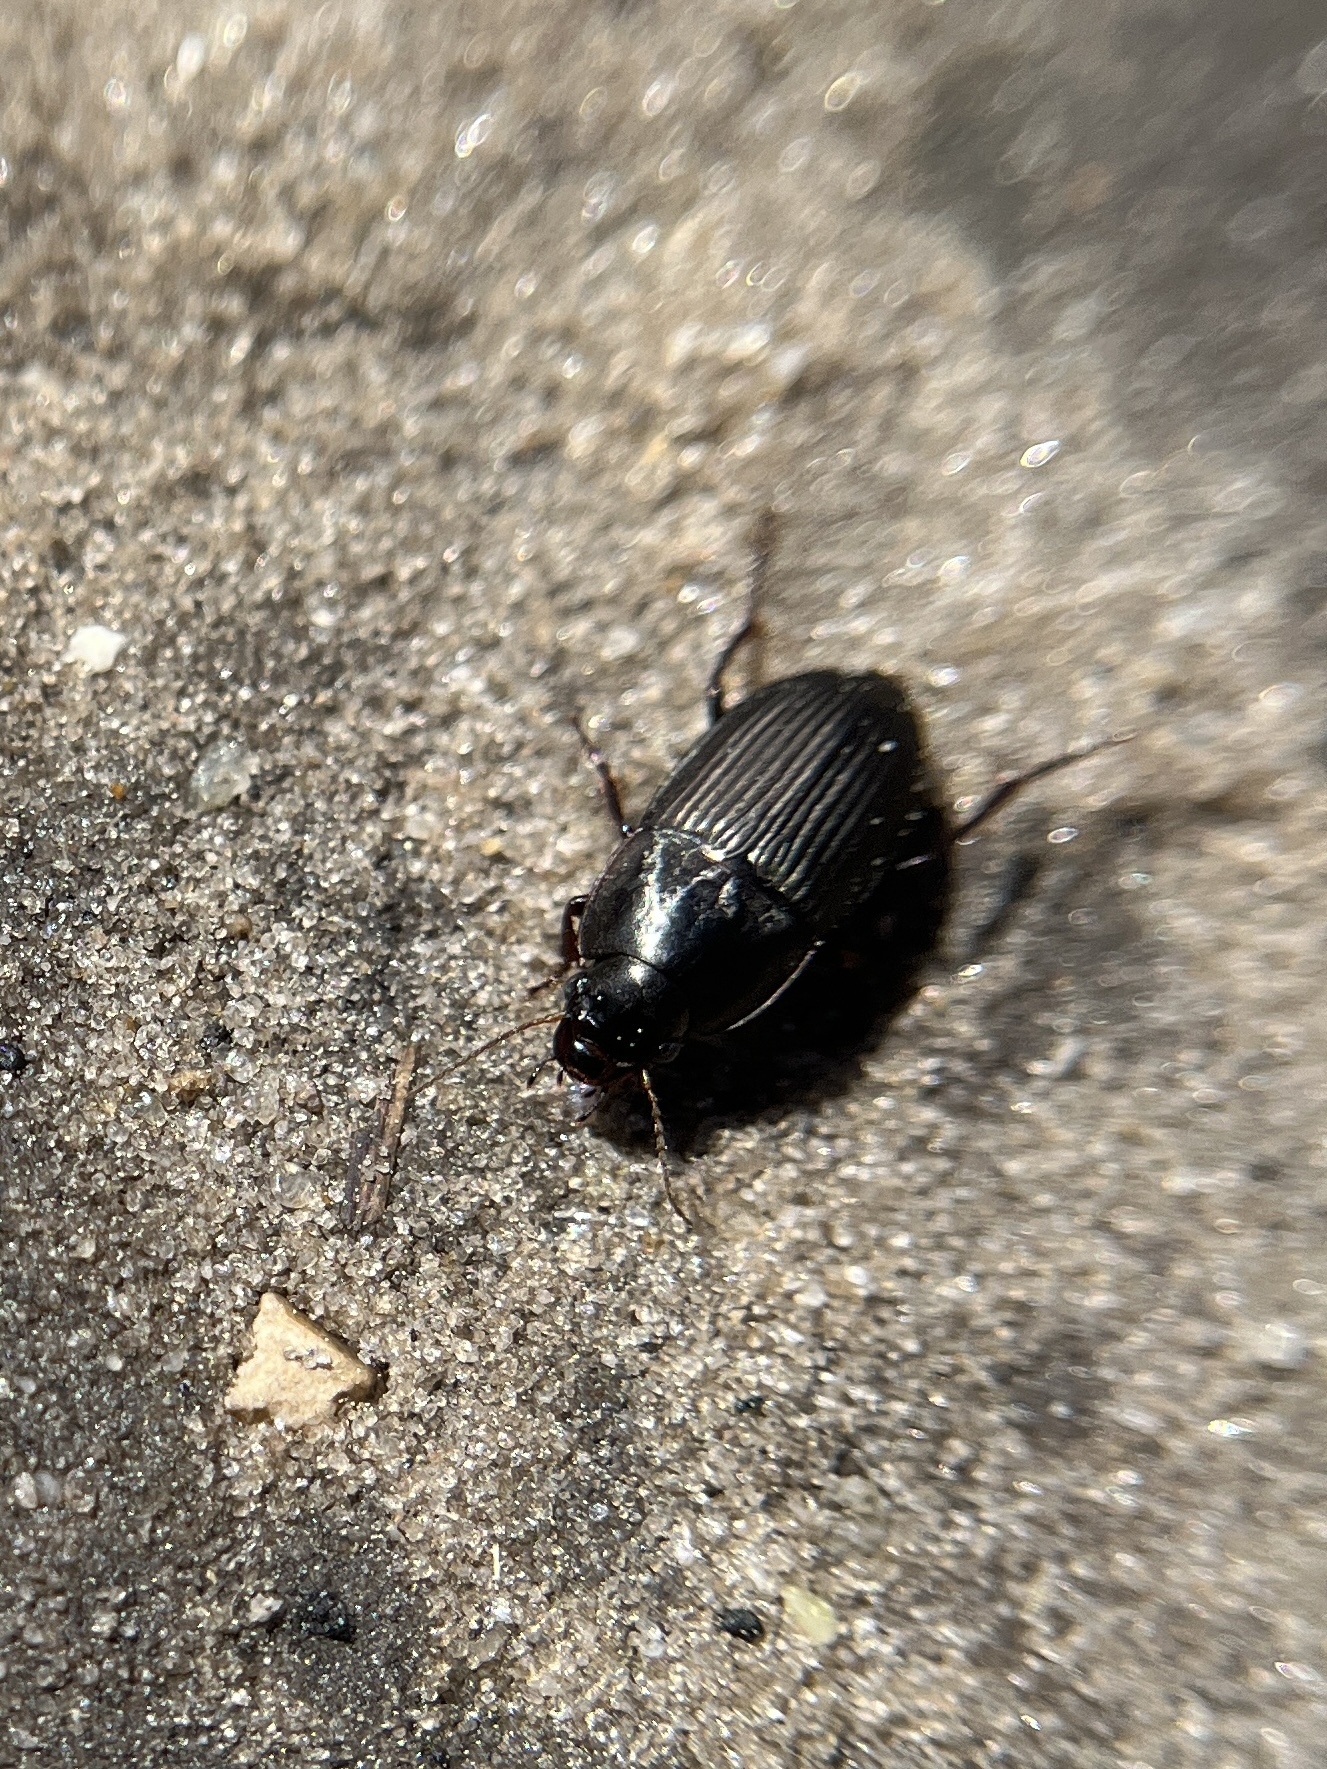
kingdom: Animalia
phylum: Arthropoda
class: Insecta
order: Coleoptera
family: Carabidae
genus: Anisodactylus
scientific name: Anisodactylus rusticus
